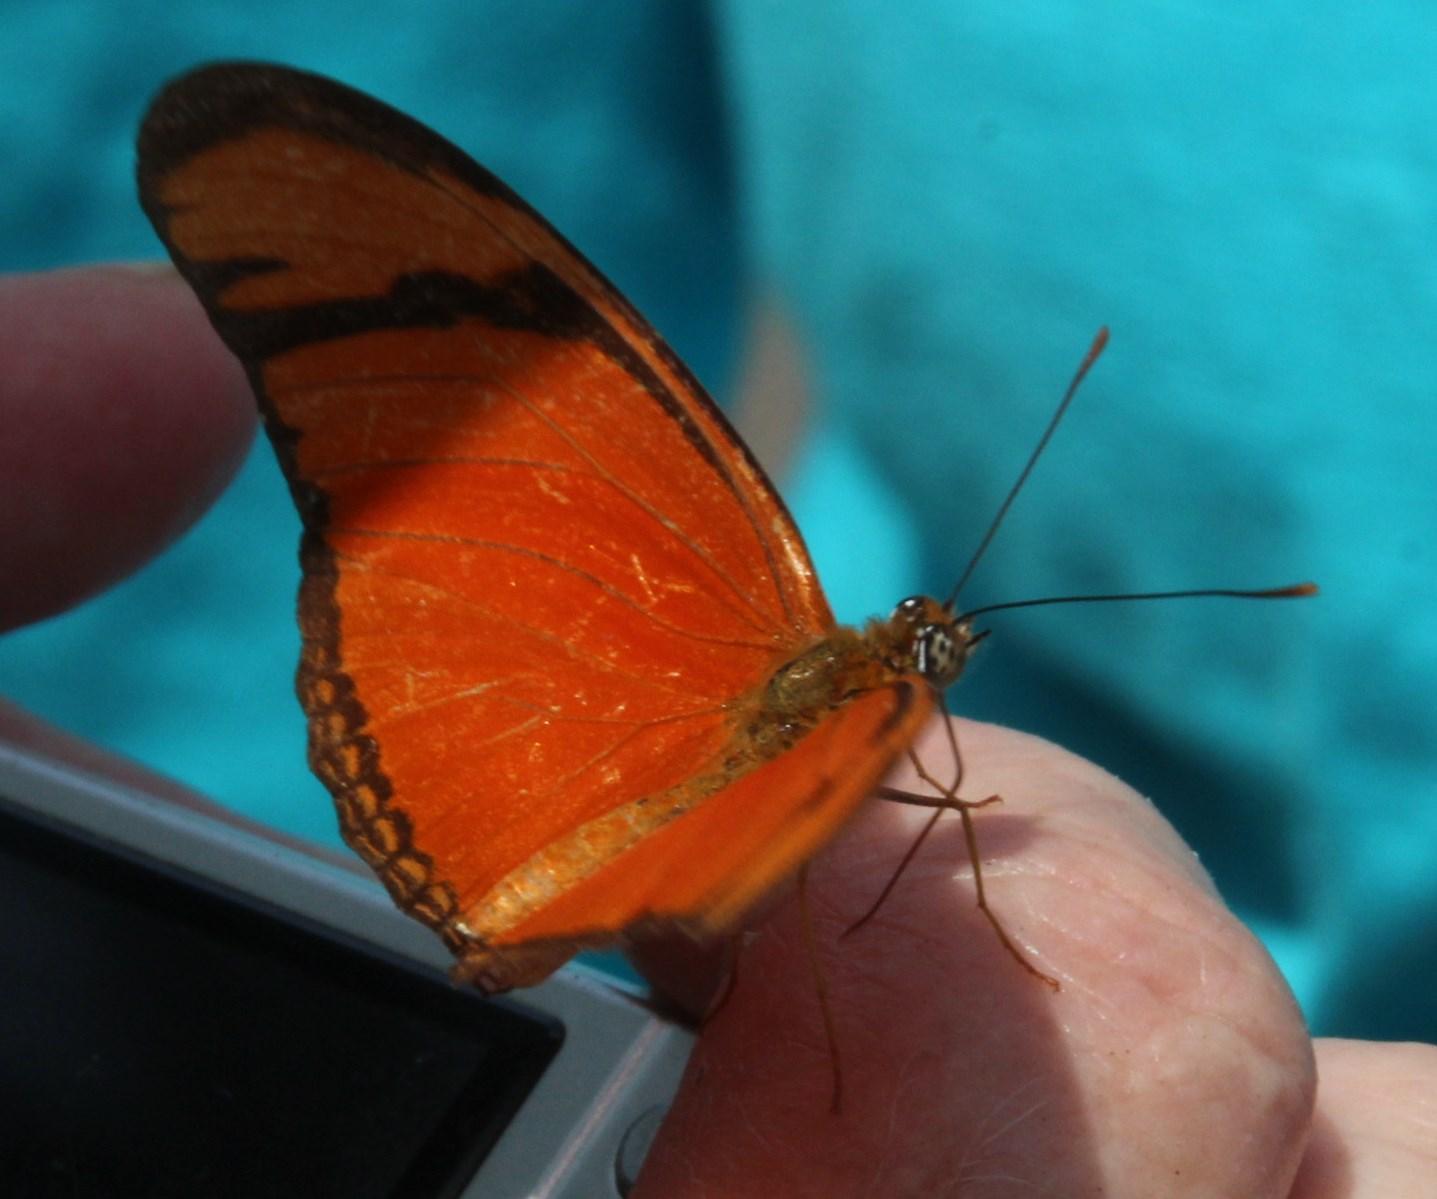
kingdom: Animalia
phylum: Arthropoda
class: Insecta
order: Lepidoptera
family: Nymphalidae
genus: Dryas
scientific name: Dryas iulia
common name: Flambeau
